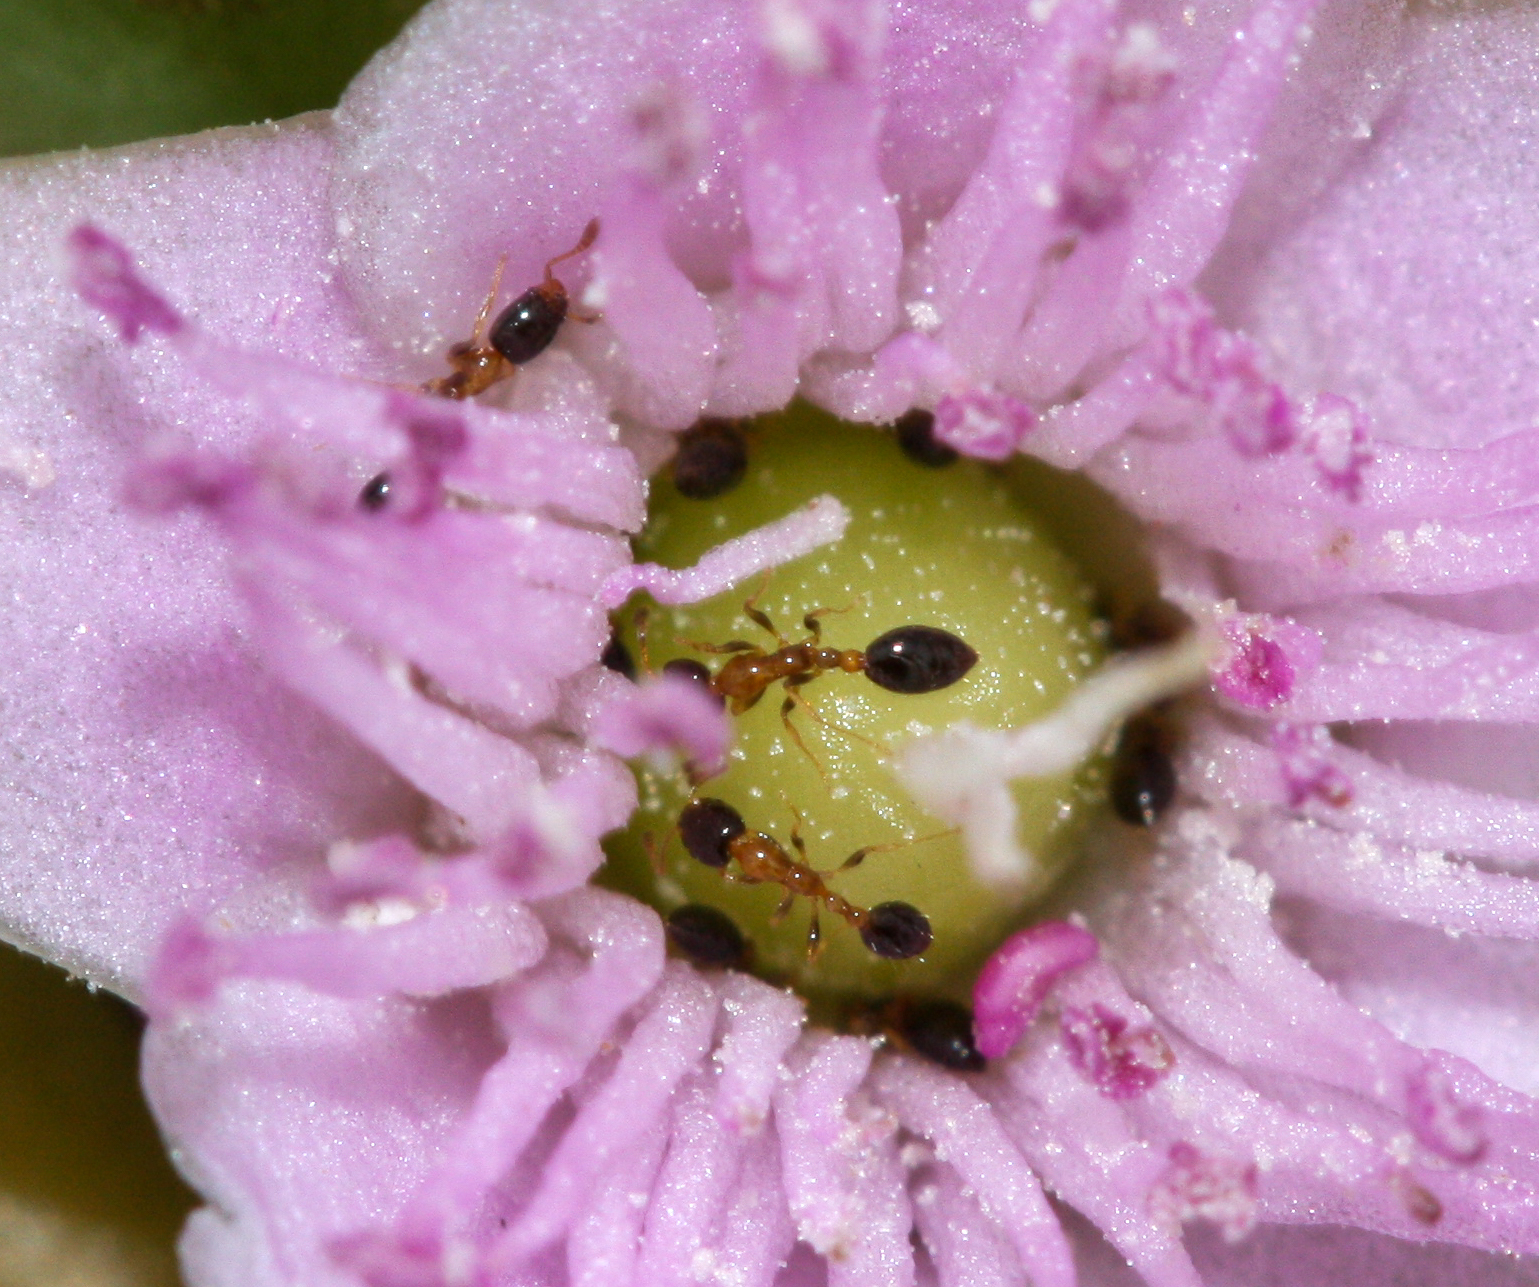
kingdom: Animalia
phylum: Arthropoda
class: Insecta
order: Hymenoptera
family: Formicidae
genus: Monomorium
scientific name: Monomorium floricola
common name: Bicolored trailing ant
